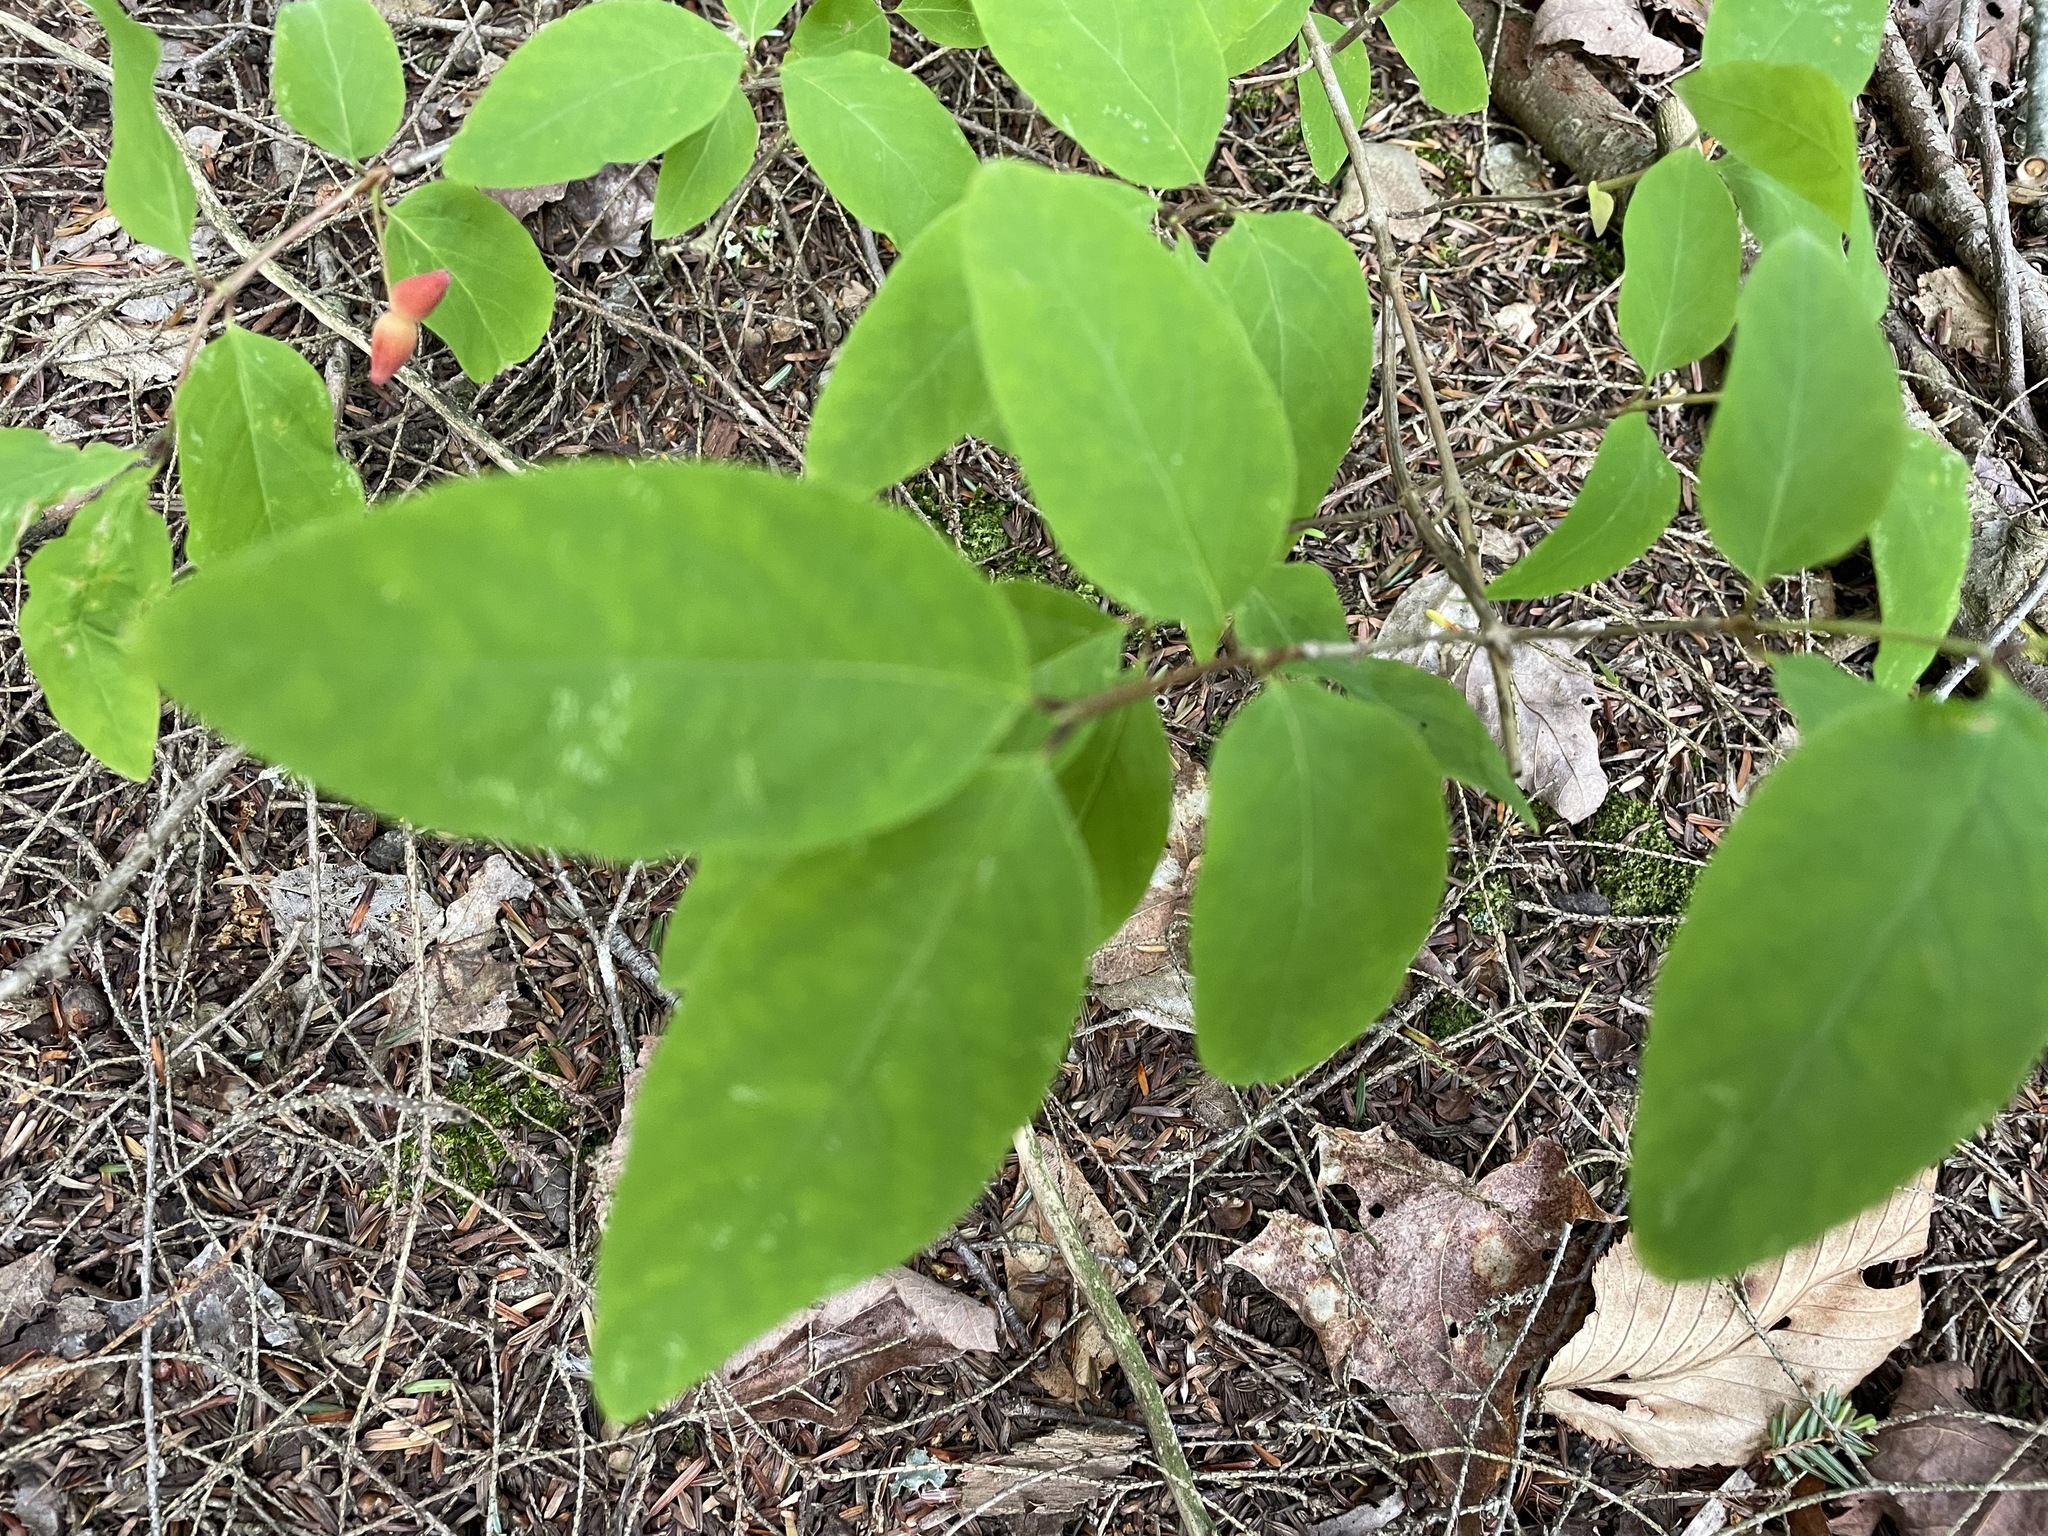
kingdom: Plantae
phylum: Tracheophyta
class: Magnoliopsida
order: Dipsacales
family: Caprifoliaceae
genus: Lonicera
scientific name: Lonicera canadensis
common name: American fly-honeysuckle
